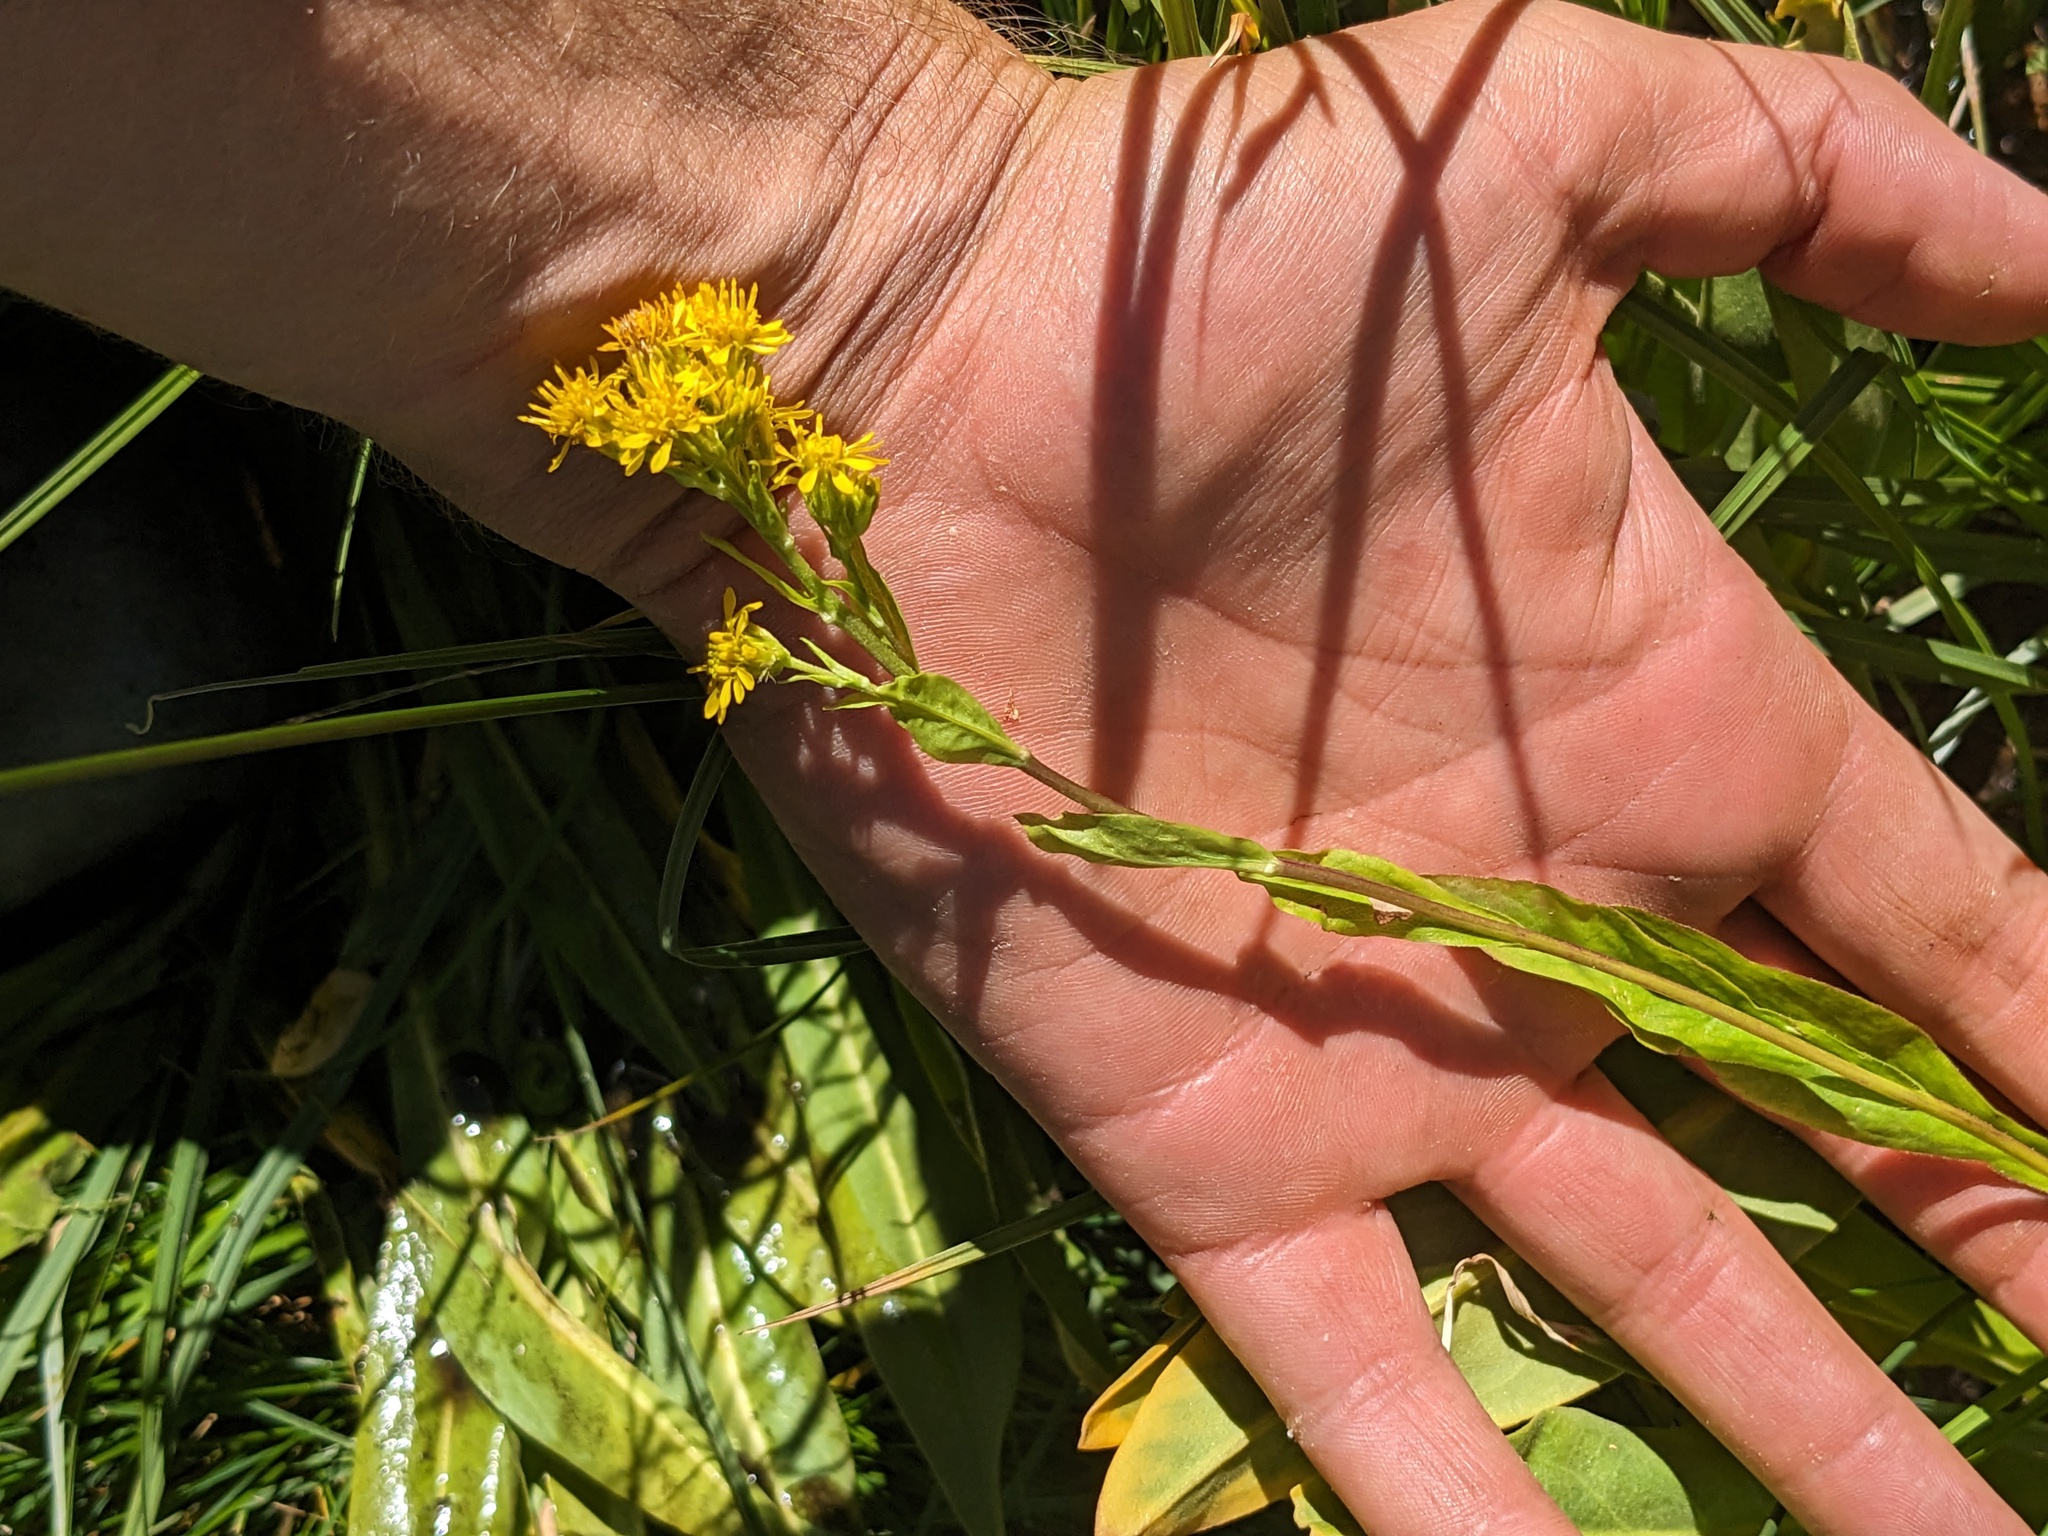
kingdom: Plantae
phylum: Tracheophyta
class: Magnoliopsida
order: Asterales
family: Asteraceae
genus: Solidago
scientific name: Solidago multiradiata
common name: Northern goldenrod
